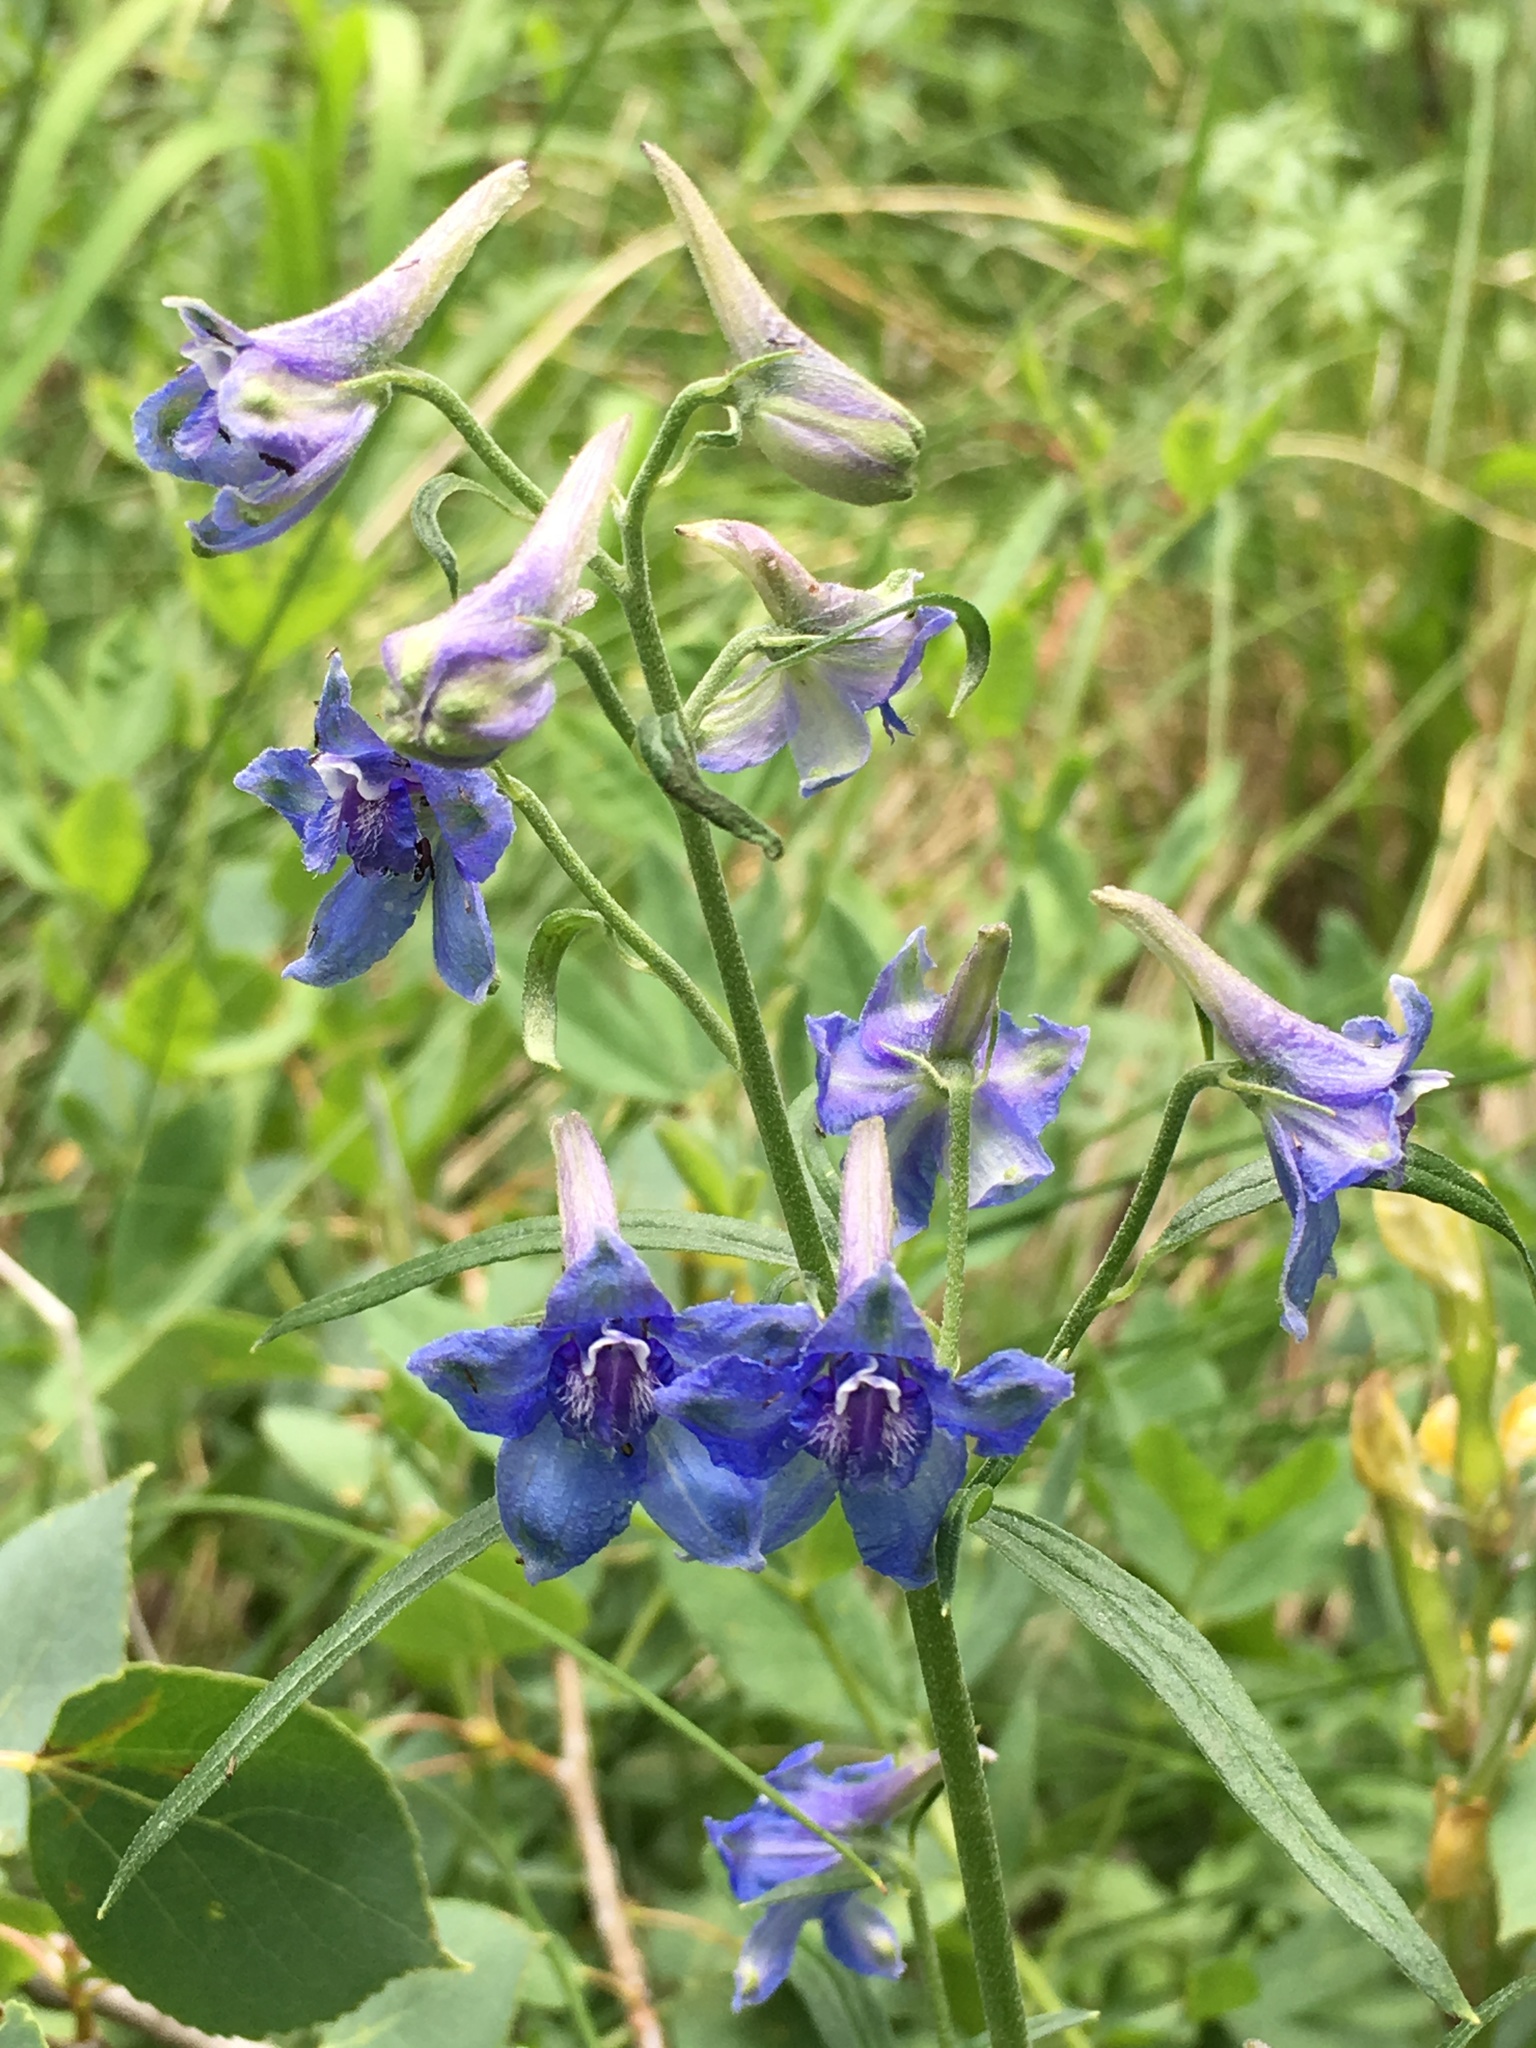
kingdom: Plantae
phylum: Tracheophyta
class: Magnoliopsida
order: Ranunculales
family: Ranunculaceae
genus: Delphinium
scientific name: Delphinium nuttallianum
